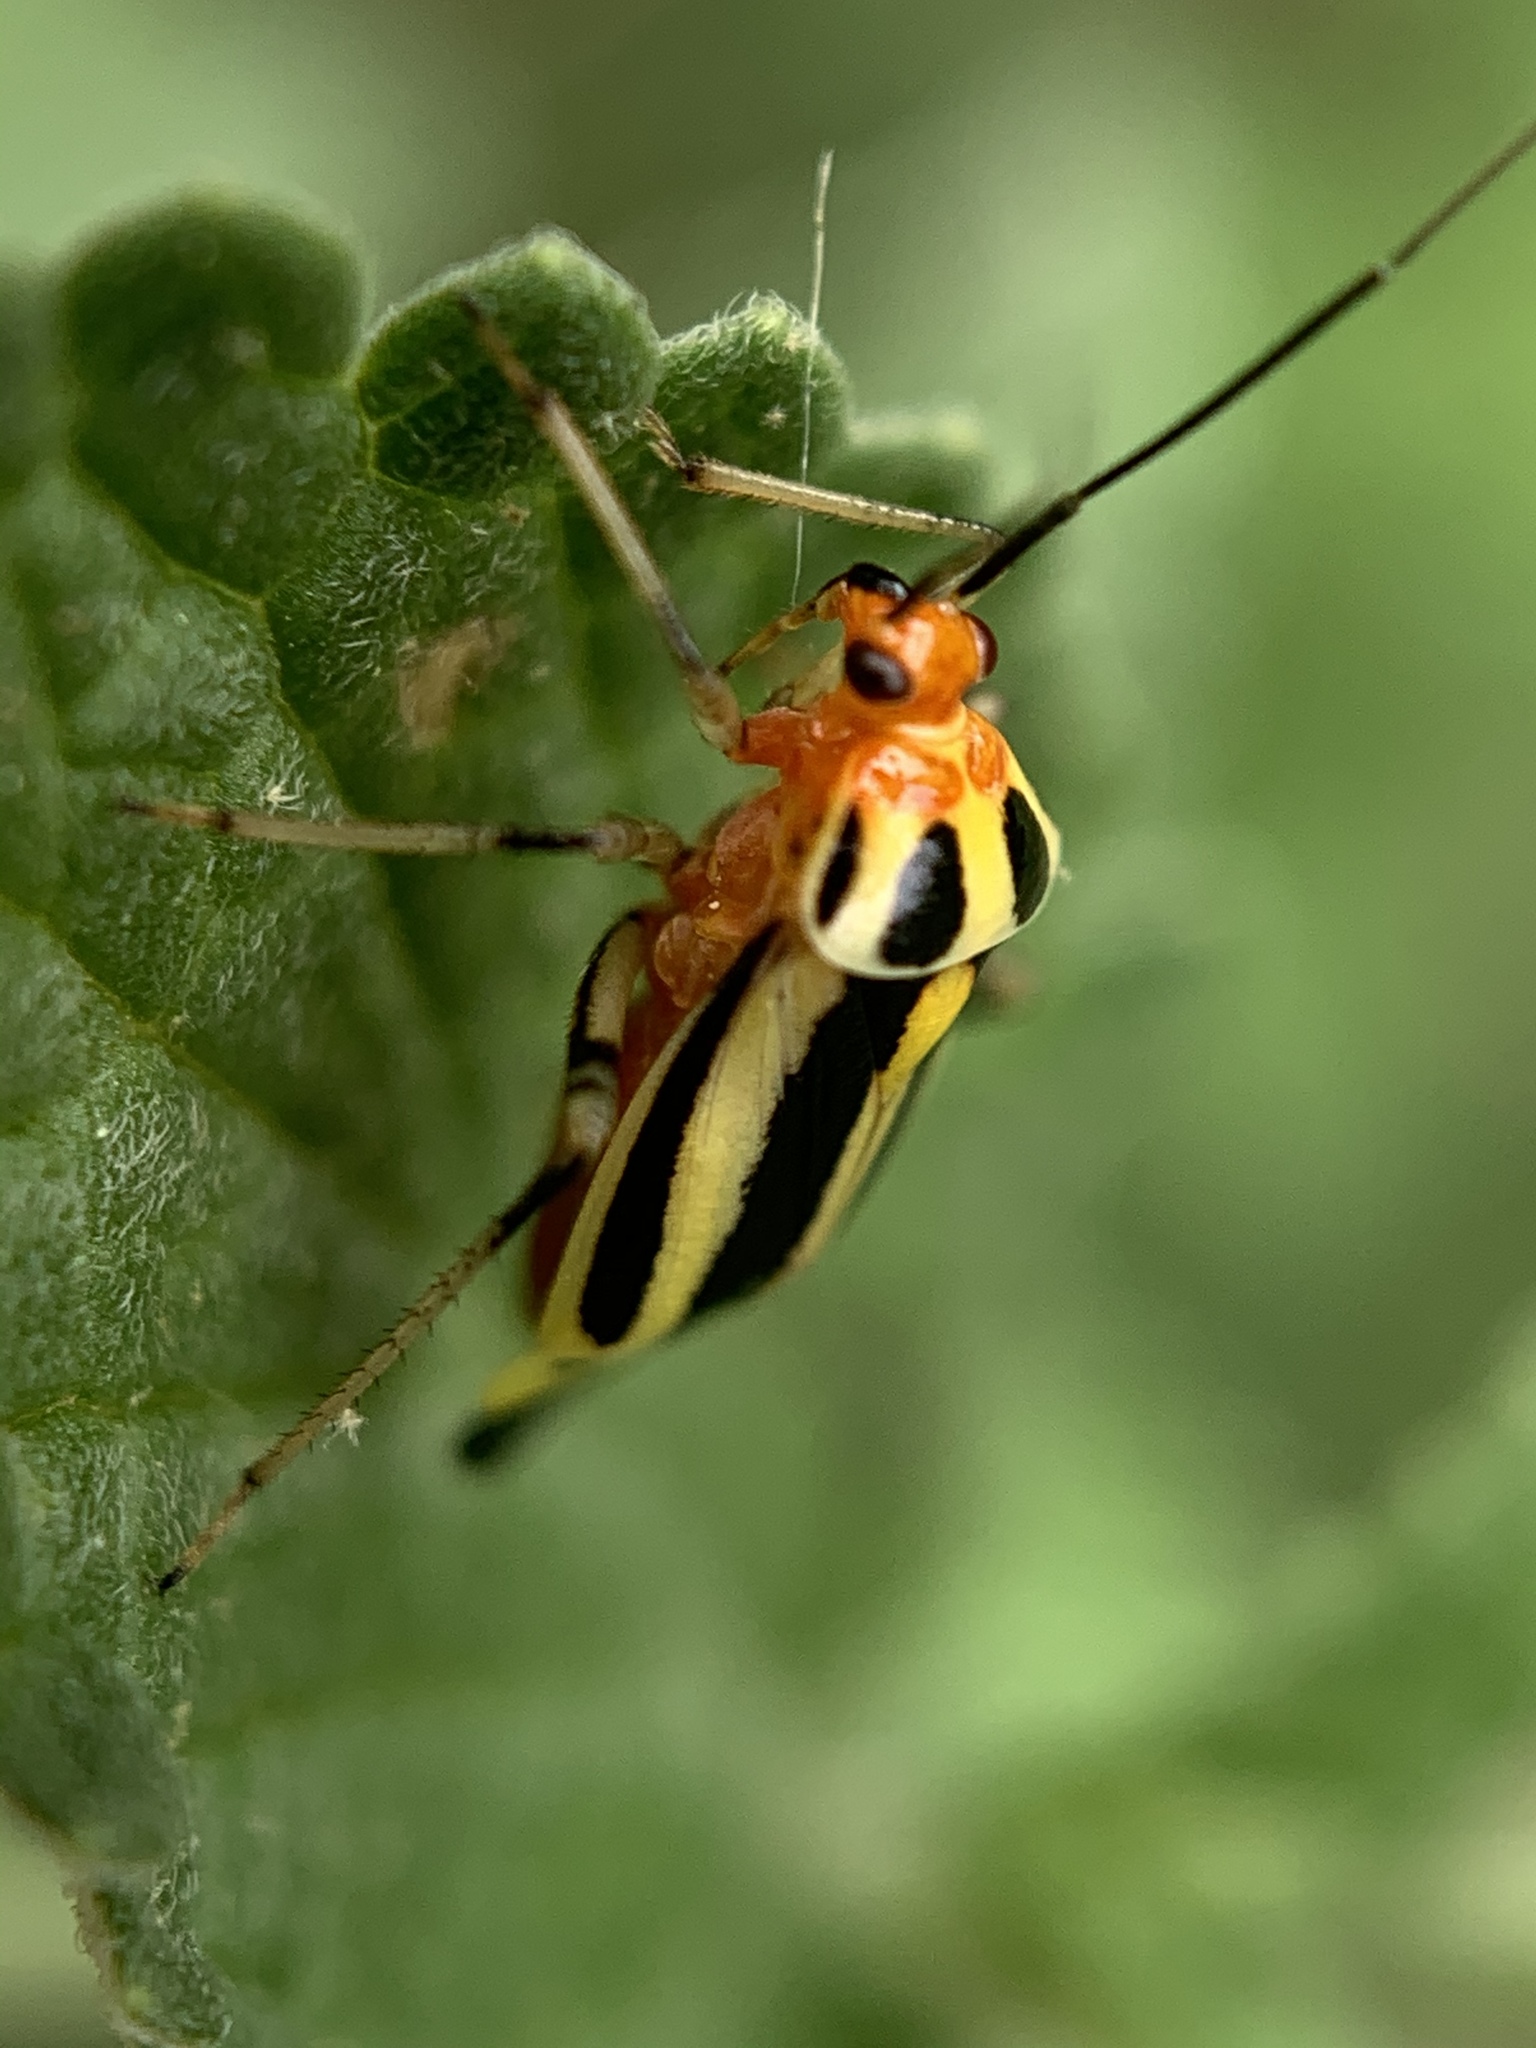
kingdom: Animalia
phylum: Arthropoda
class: Insecta
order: Hemiptera
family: Miridae
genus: Poecilocapsus
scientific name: Poecilocapsus lineatus
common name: Four-lined plant bug
